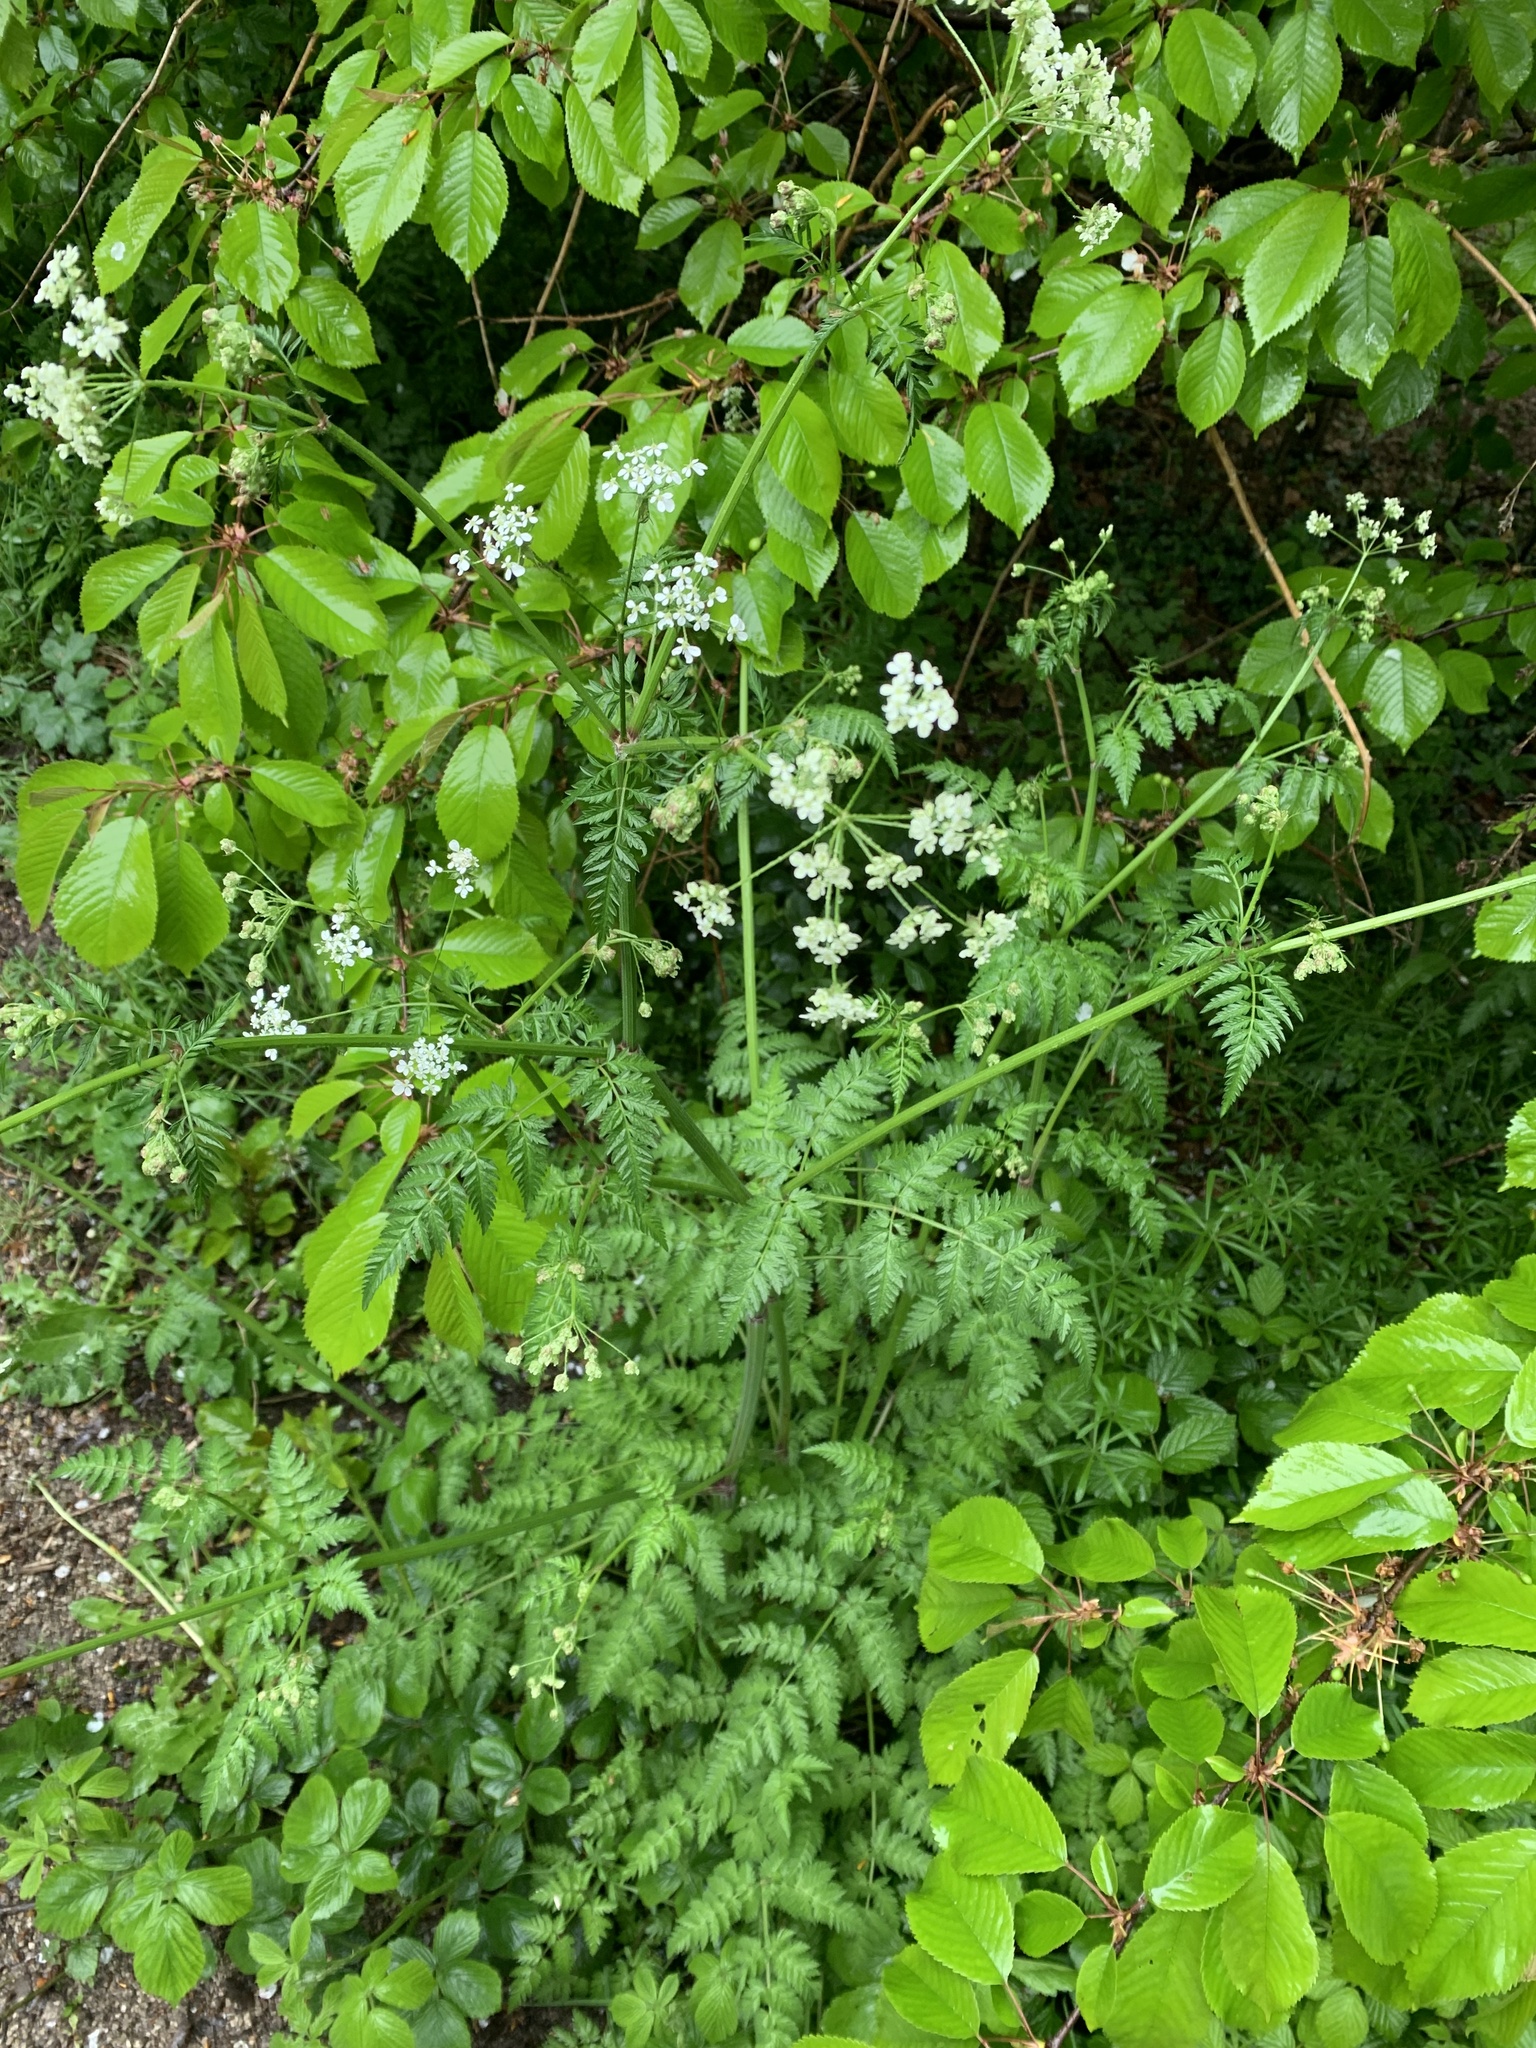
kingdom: Plantae
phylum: Tracheophyta
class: Magnoliopsida
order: Apiales
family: Apiaceae
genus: Anthriscus
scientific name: Anthriscus sylvestris
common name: Cow parsley
